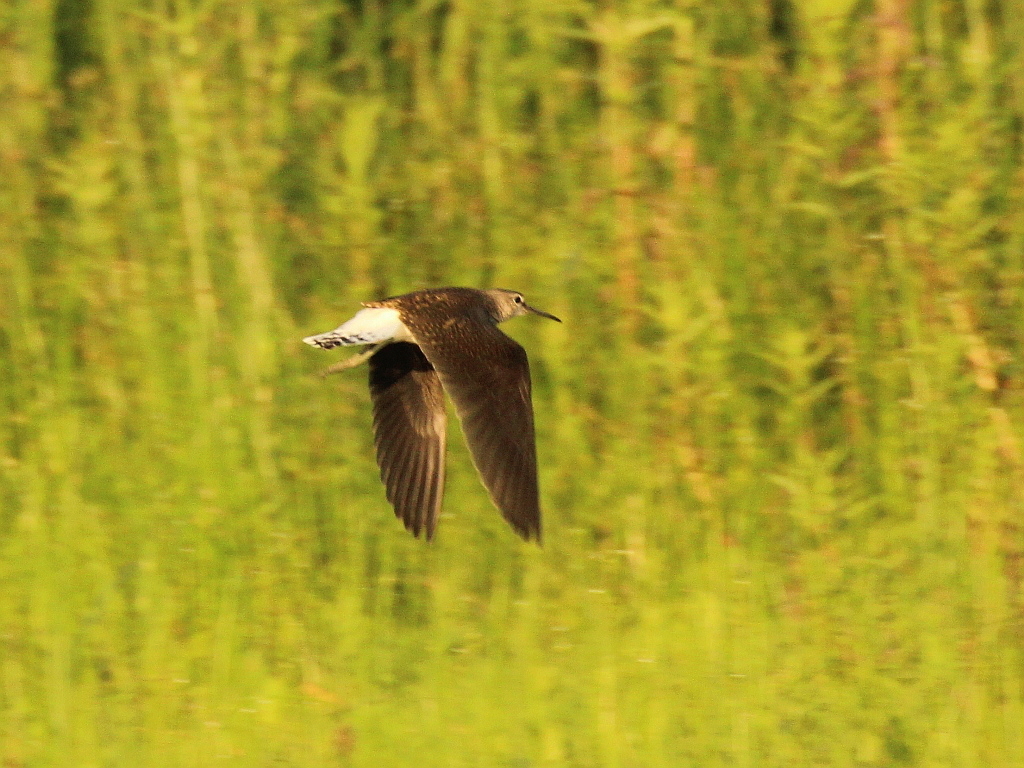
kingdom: Animalia
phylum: Chordata
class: Aves
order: Charadriiformes
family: Scolopacidae
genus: Tringa
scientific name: Tringa ochropus
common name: Green sandpiper
